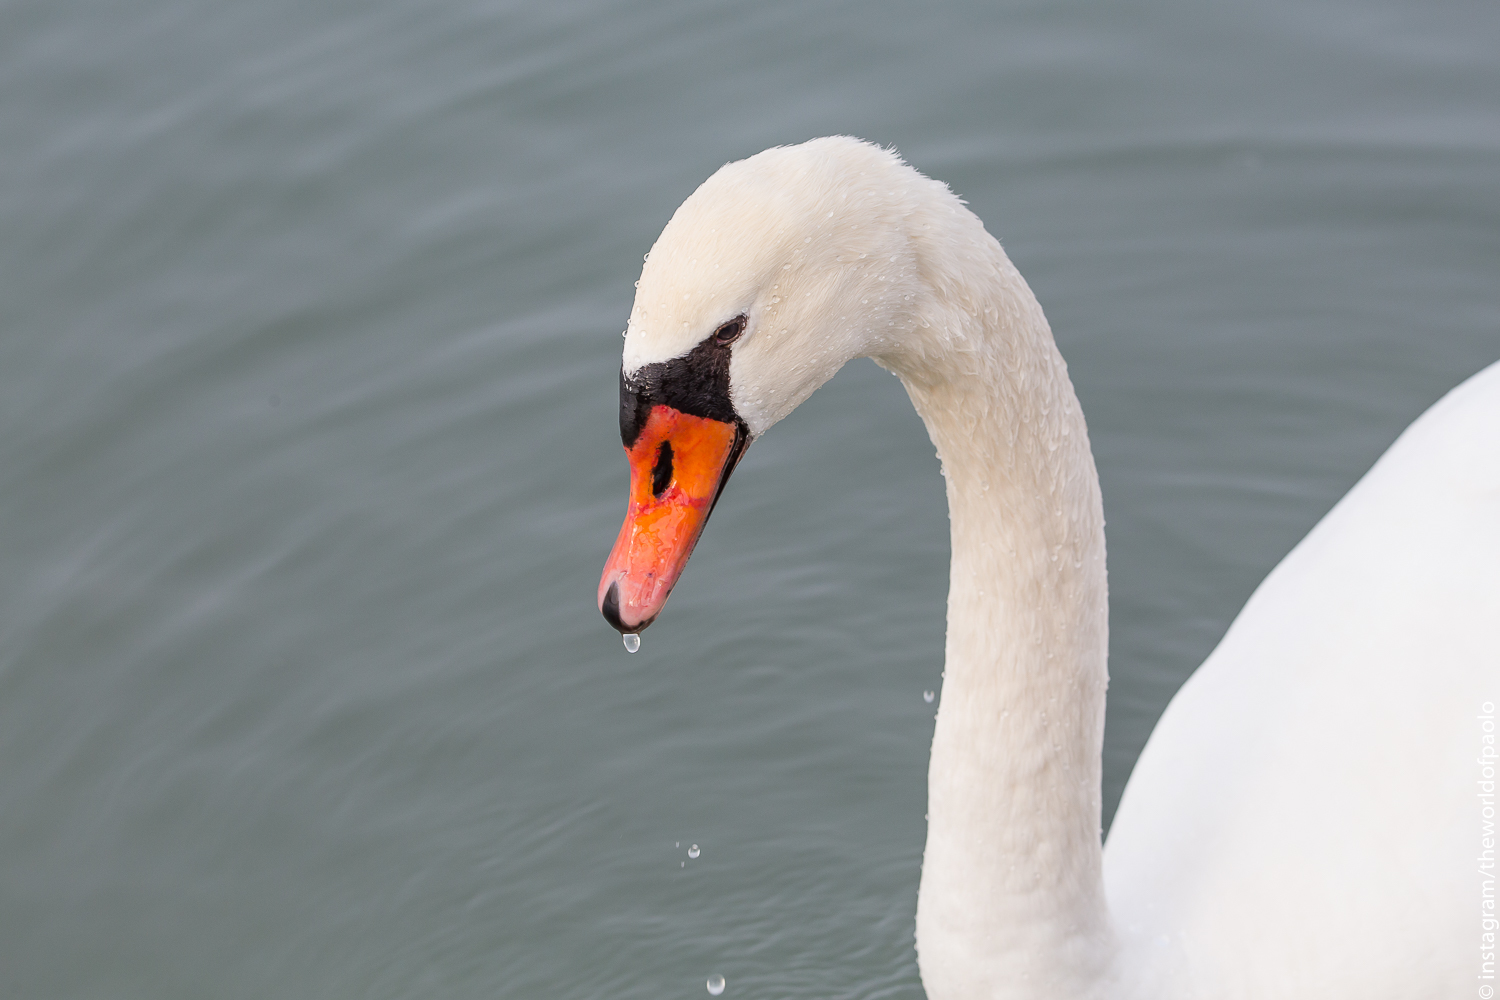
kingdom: Animalia
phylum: Chordata
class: Aves
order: Anseriformes
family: Anatidae
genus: Cygnus
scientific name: Cygnus olor
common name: Mute swan
